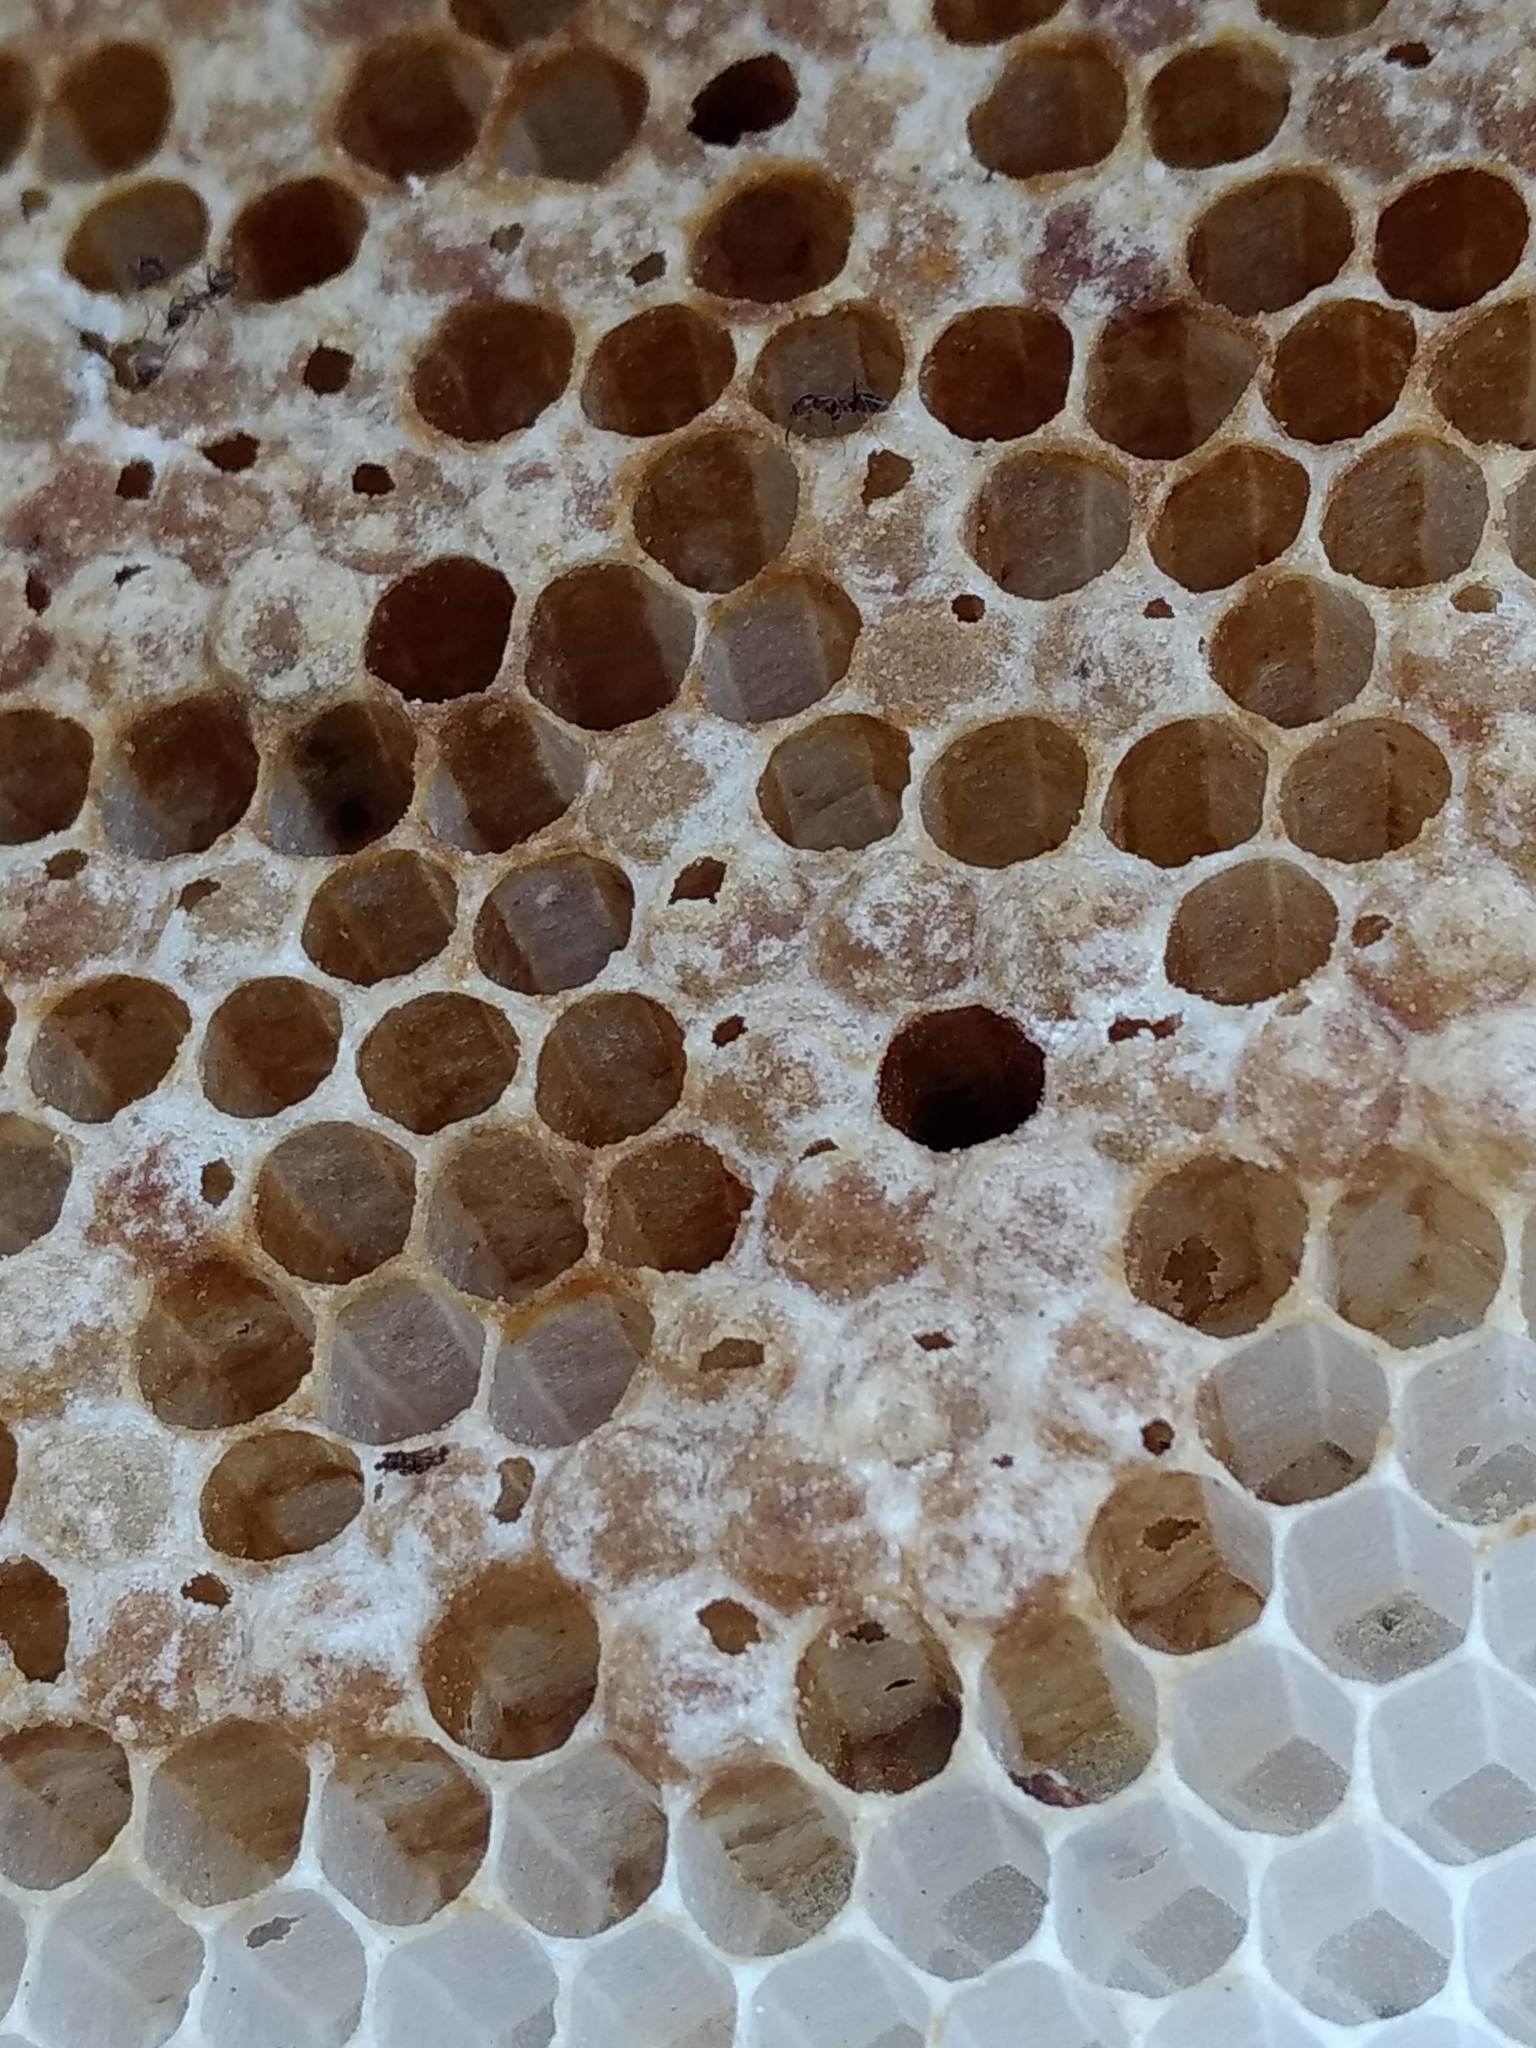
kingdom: Animalia
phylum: Arthropoda
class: Insecta
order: Hymenoptera
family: Apidae
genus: Apis
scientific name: Apis mellifera
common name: Honey bee
